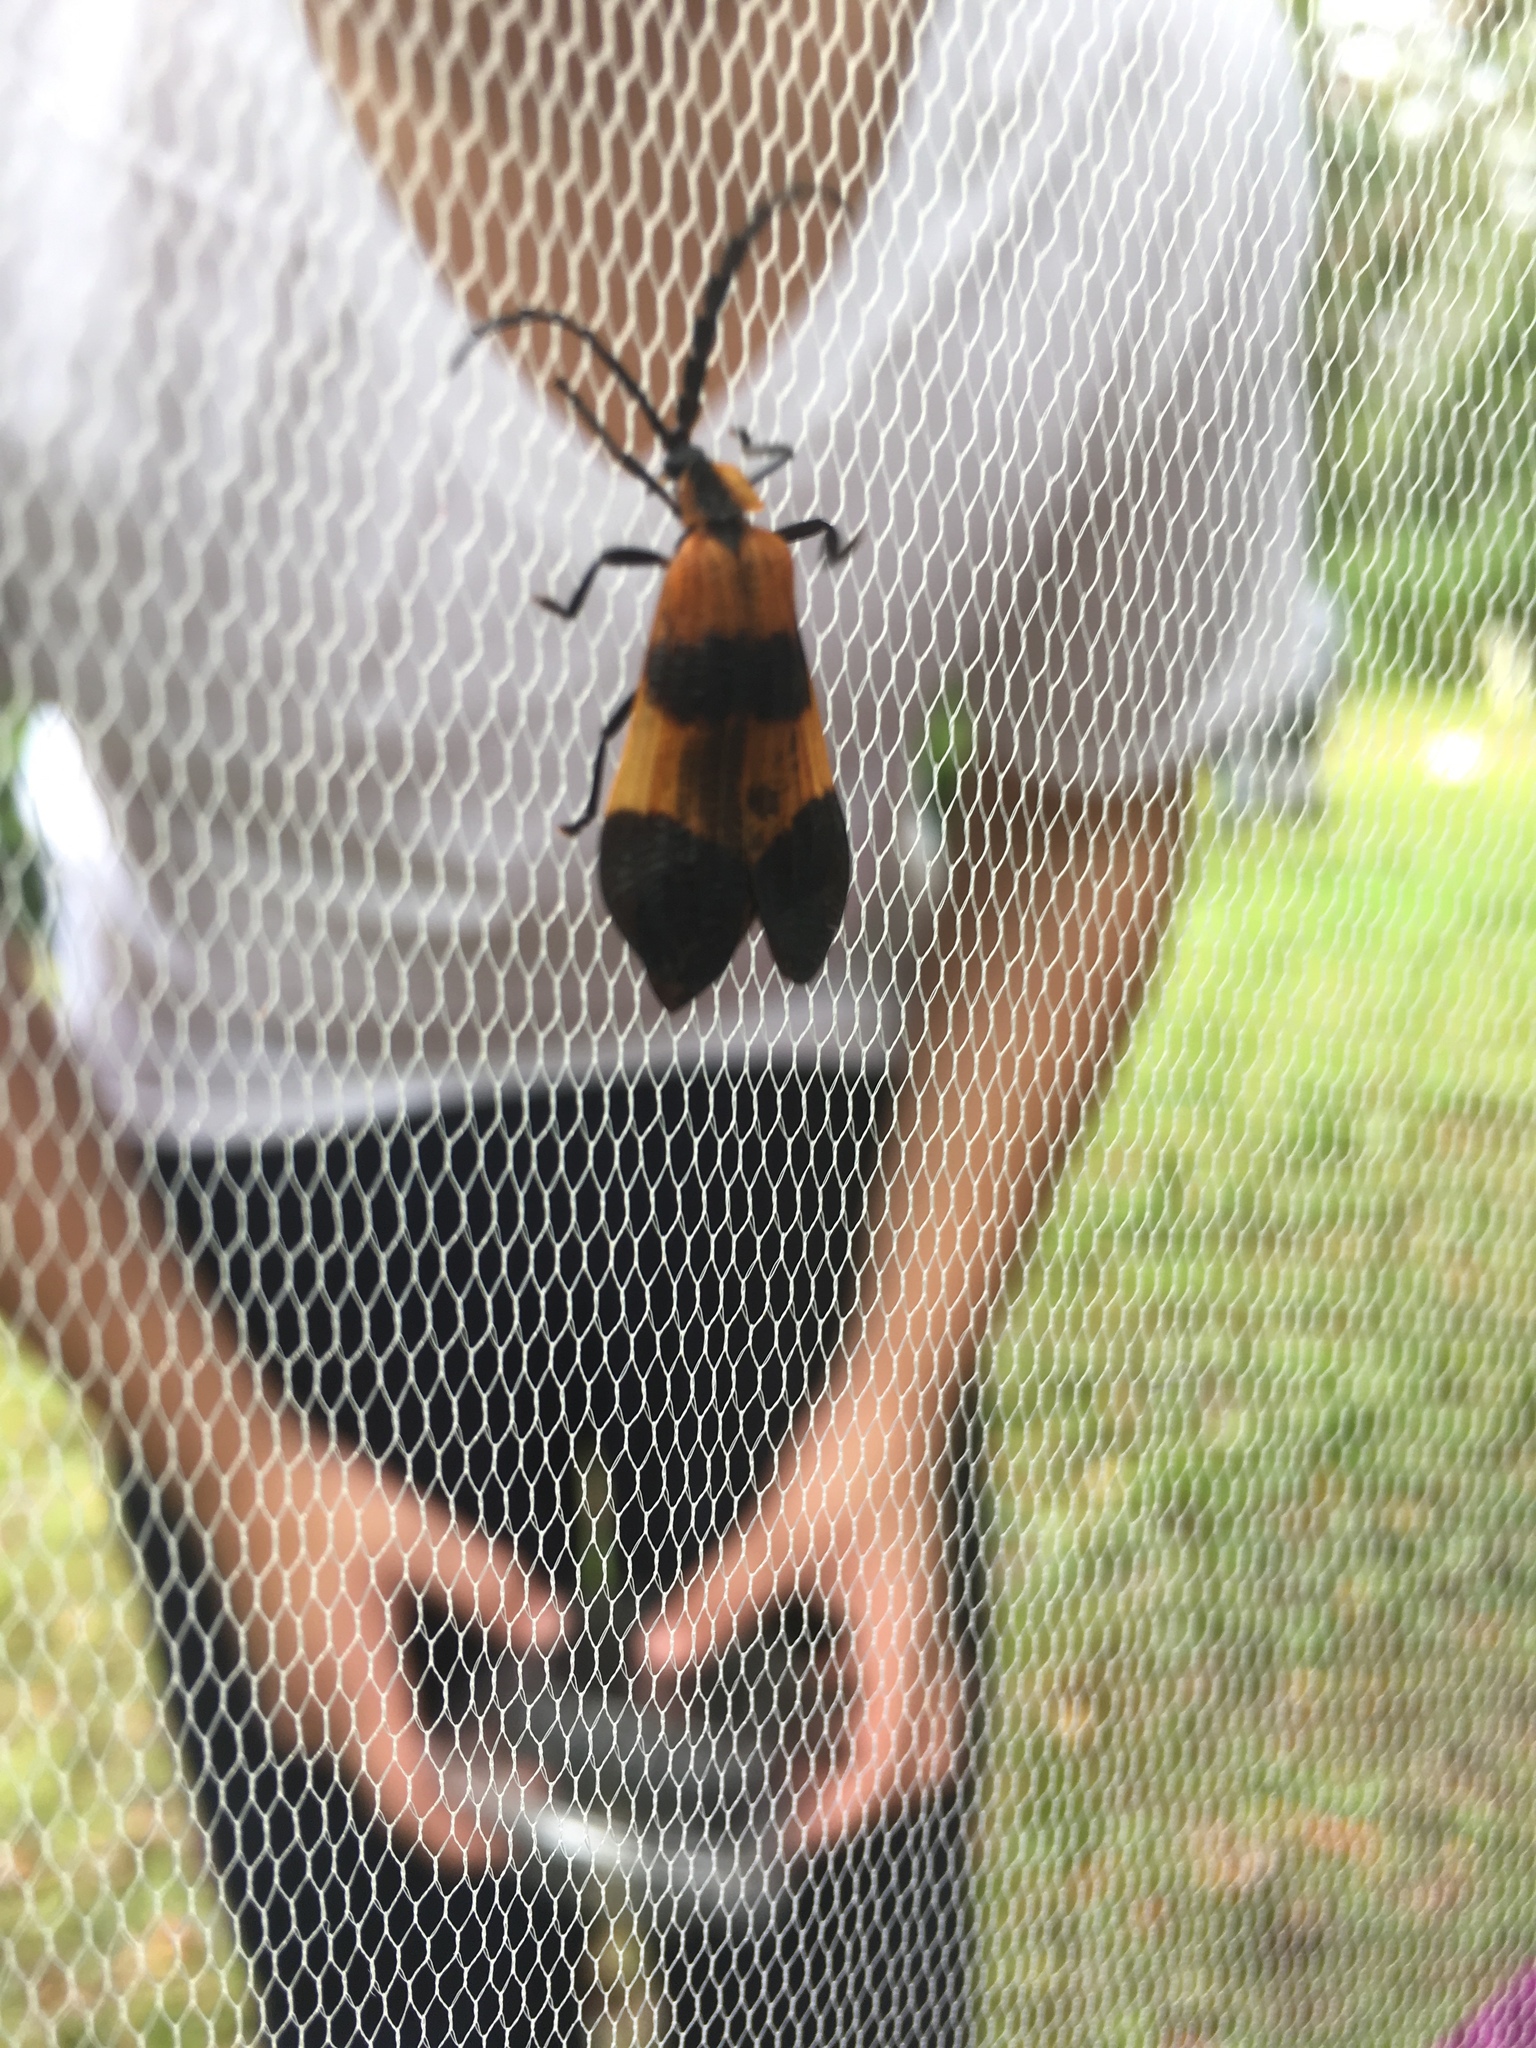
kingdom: Animalia
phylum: Arthropoda
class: Insecta
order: Coleoptera
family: Lycidae
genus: Calopteron
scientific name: Calopteron terminale
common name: End band net-winged beetle
